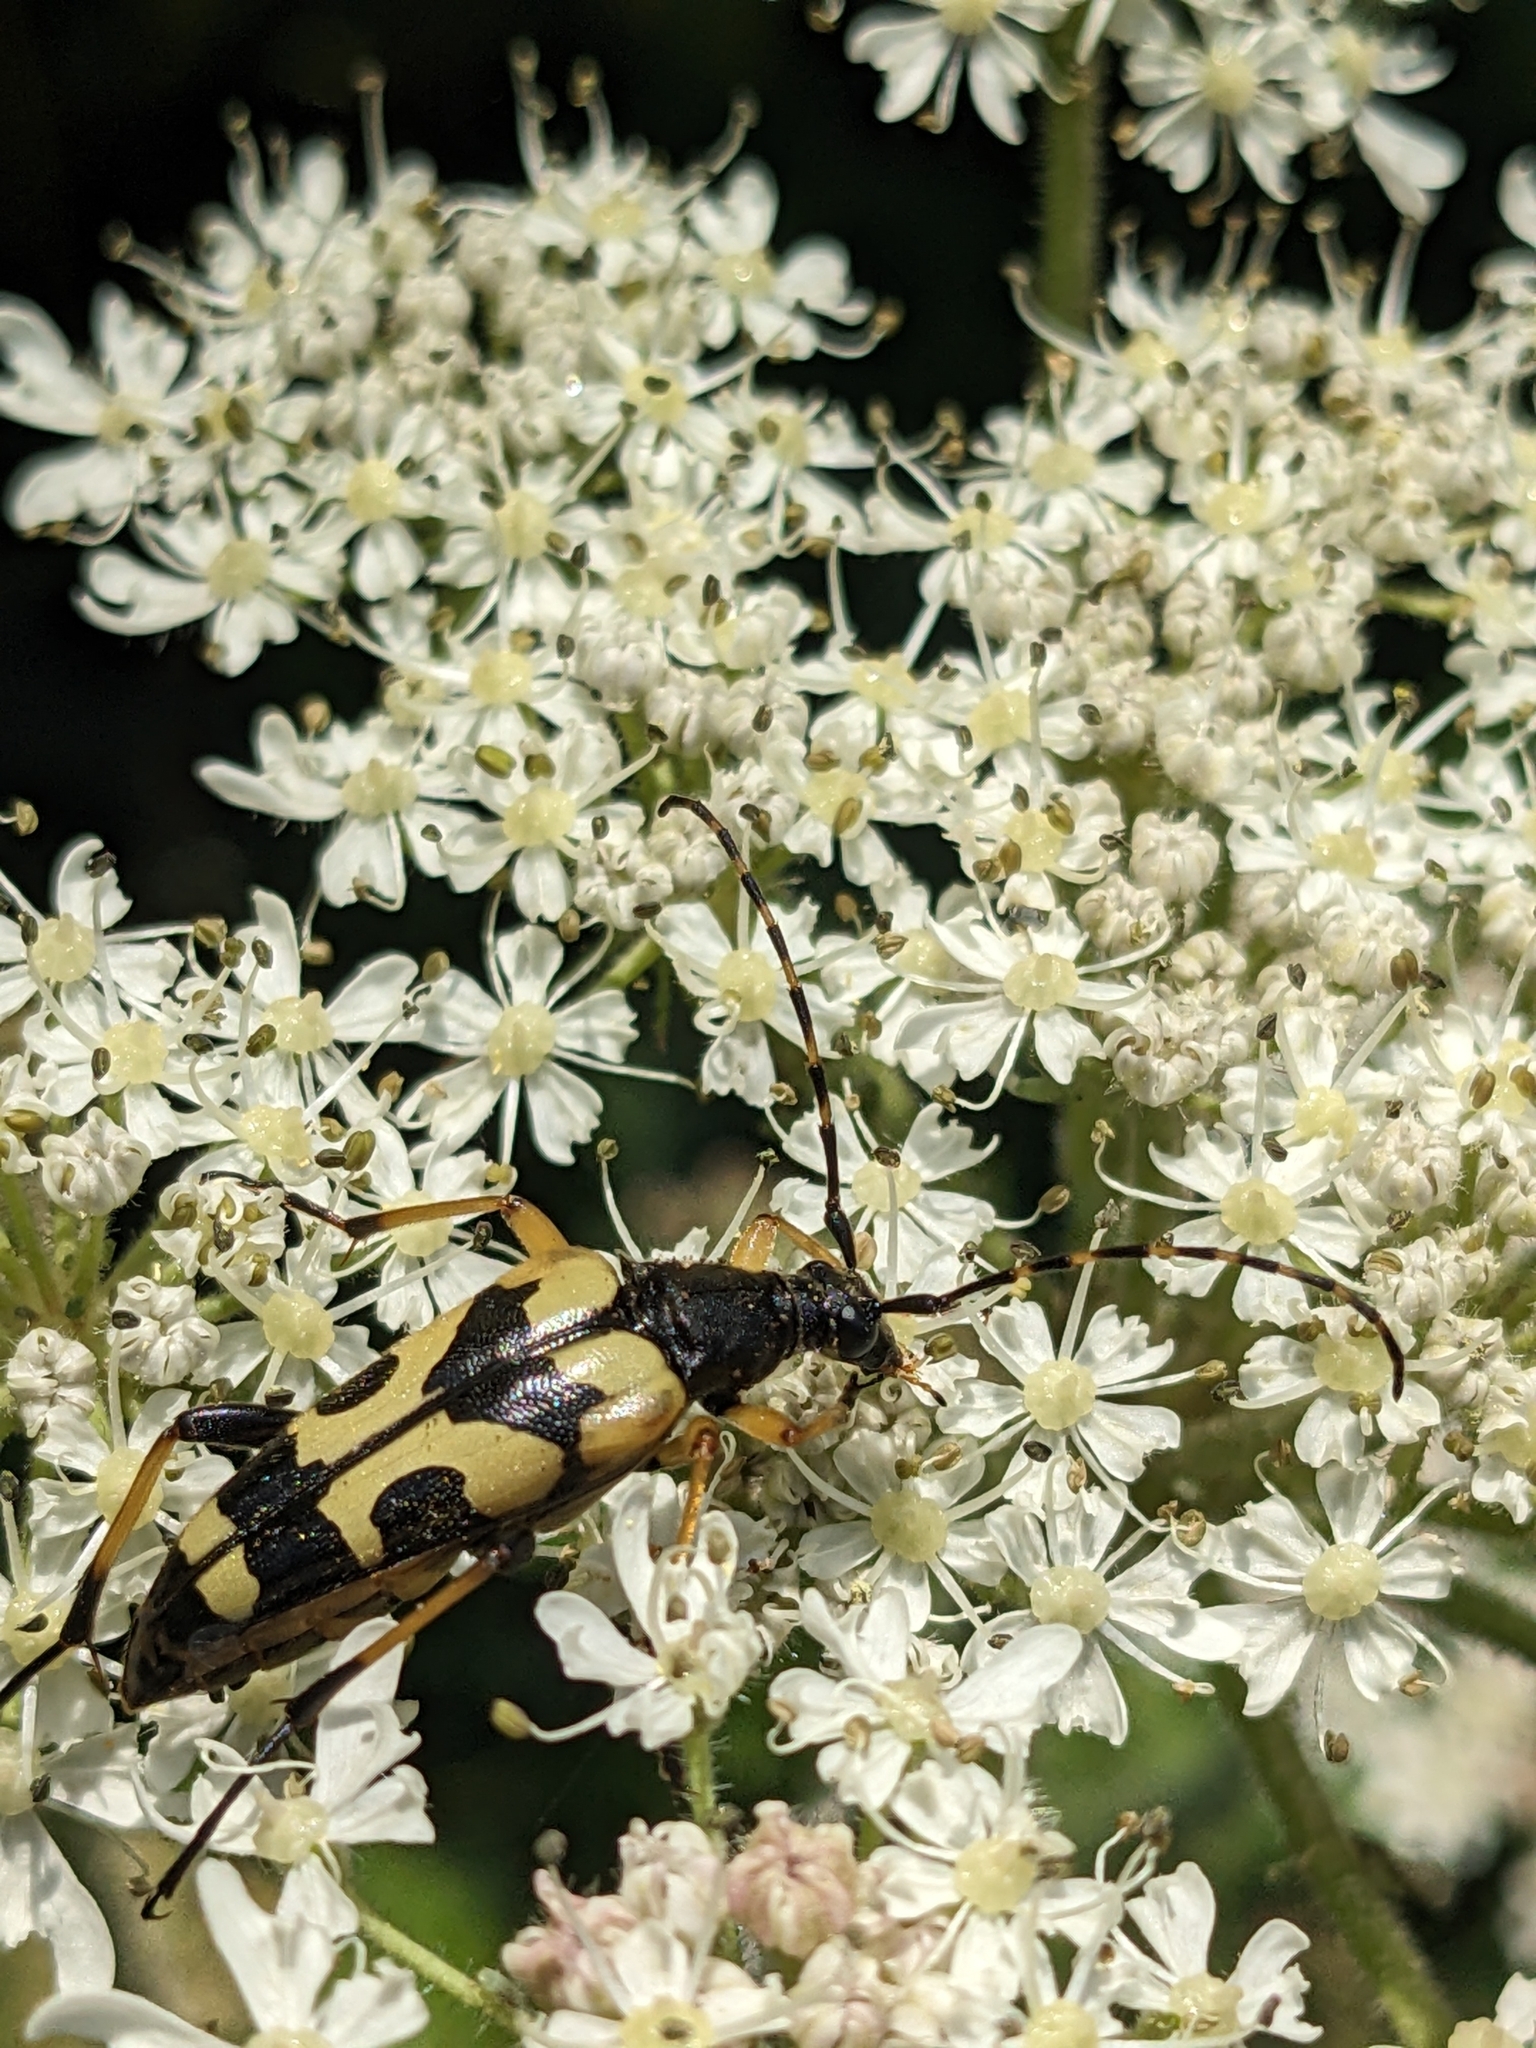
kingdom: Animalia
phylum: Arthropoda
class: Insecta
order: Coleoptera
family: Cerambycidae
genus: Rutpela
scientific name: Rutpela maculata
